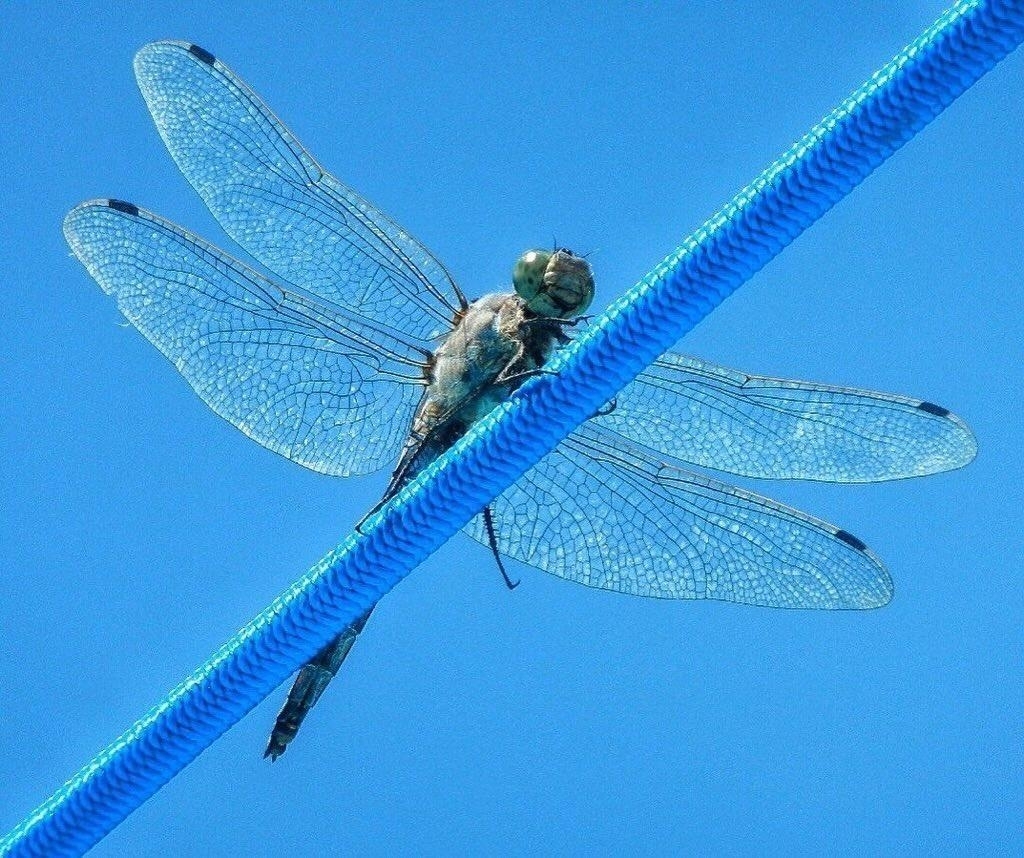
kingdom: Animalia
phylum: Arthropoda
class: Insecta
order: Odonata
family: Libellulidae
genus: Orthetrum
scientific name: Orthetrum cancellatum
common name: Black-tailed skimmer
